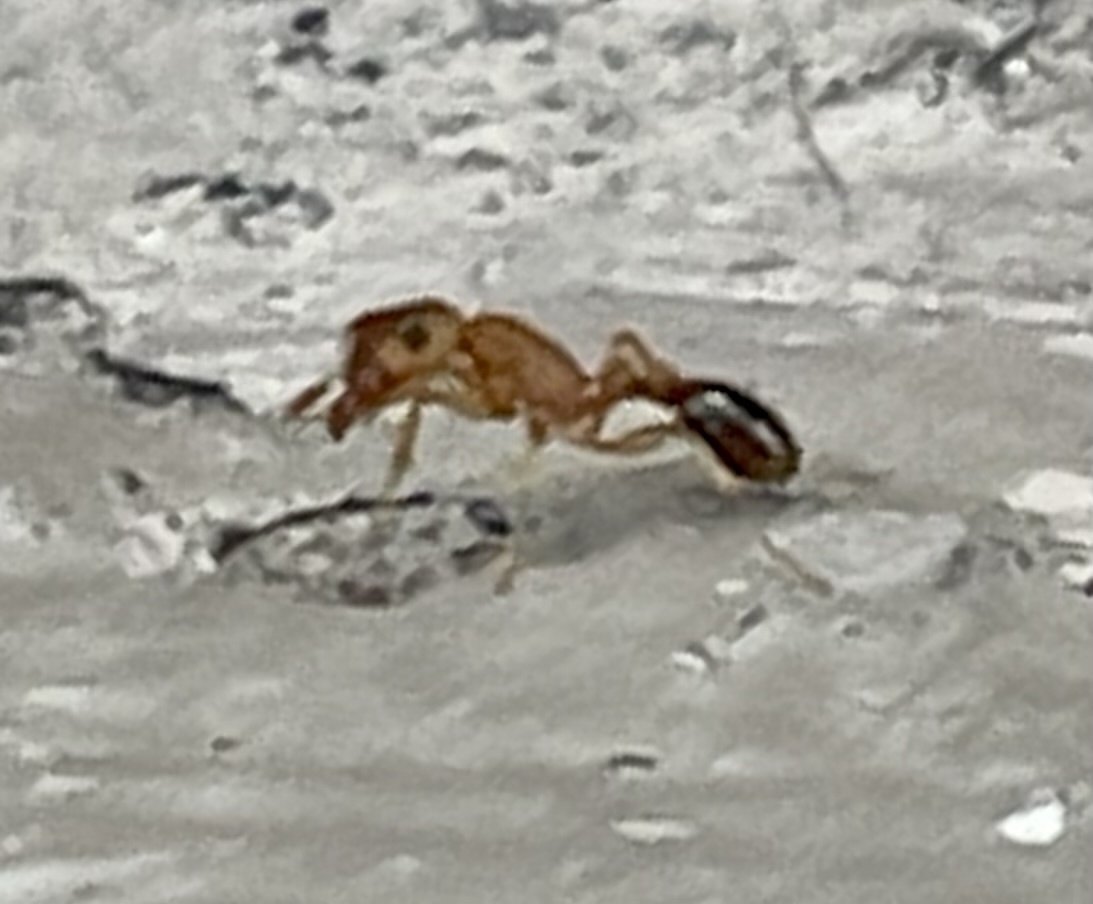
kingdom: Animalia
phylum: Arthropoda
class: Insecta
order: Hymenoptera
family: Formicidae
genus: Tetramorium
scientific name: Tetramorium bicarinatum
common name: Guinea ant
